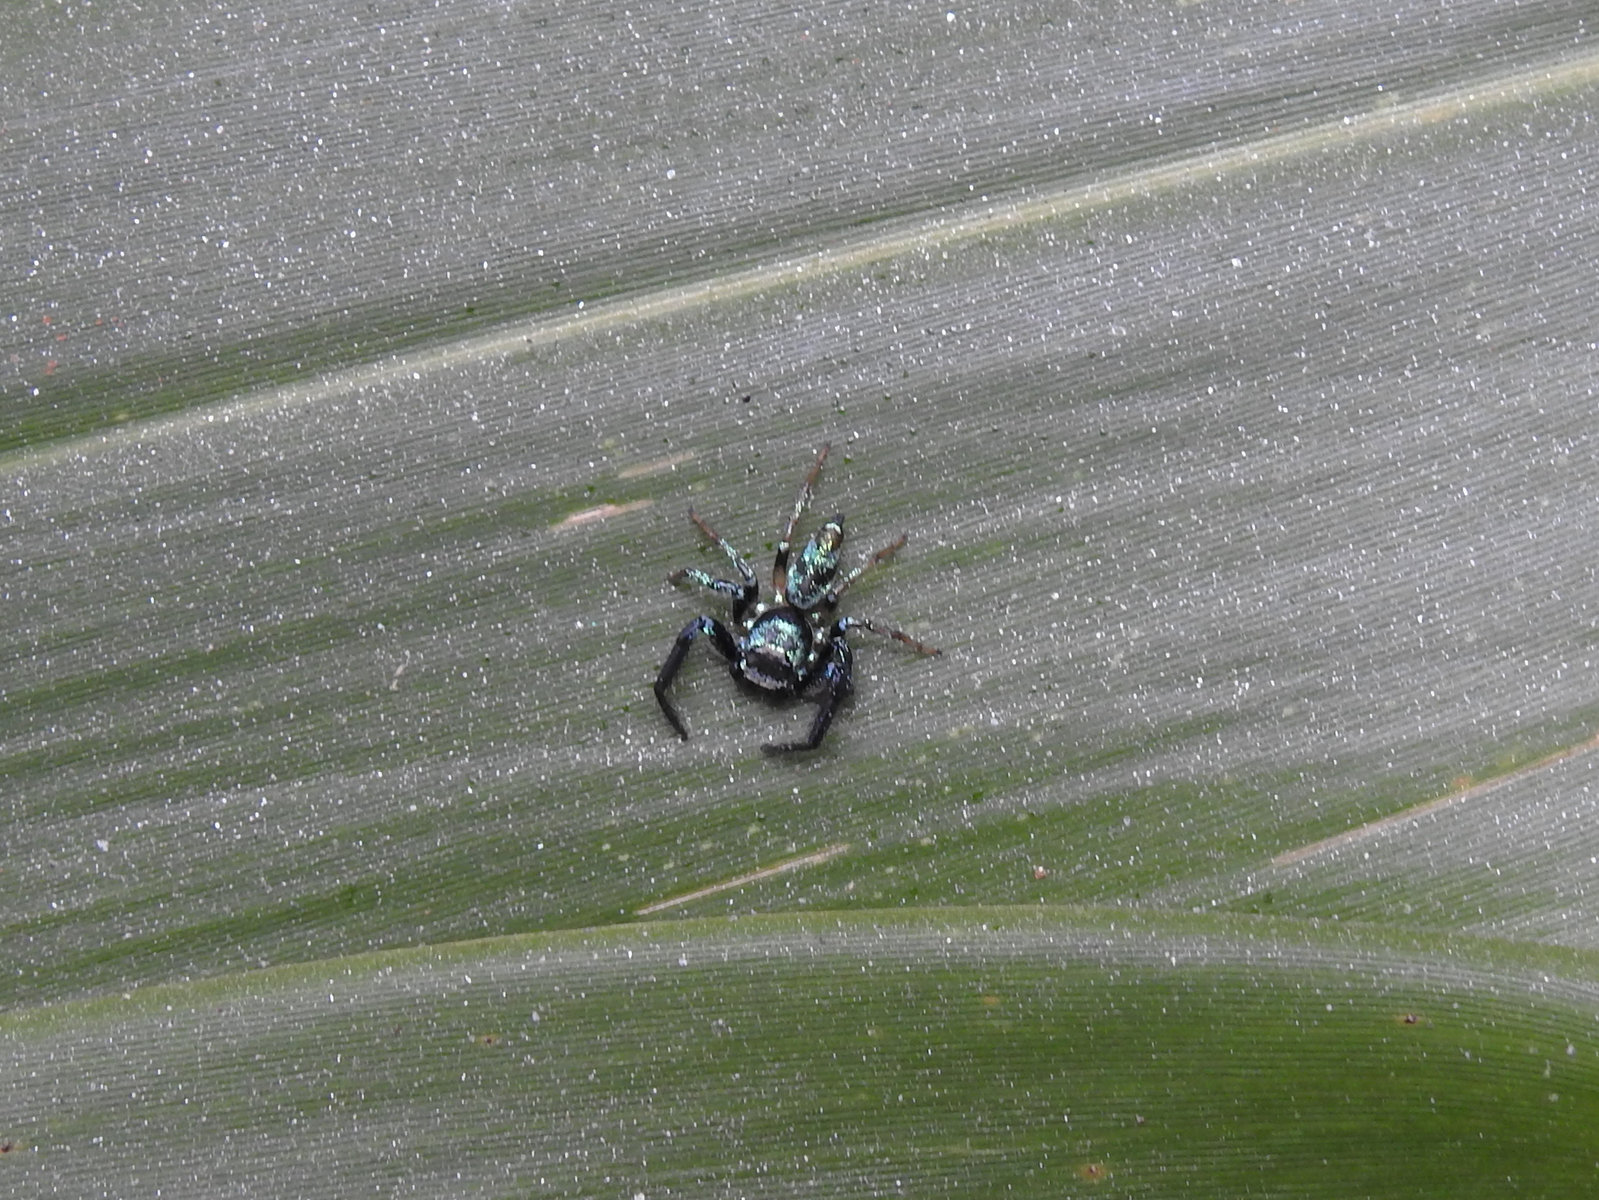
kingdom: Animalia
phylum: Arthropoda
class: Arachnida
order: Araneae
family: Salticidae
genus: Thiania
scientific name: Thiania bhamoensis
